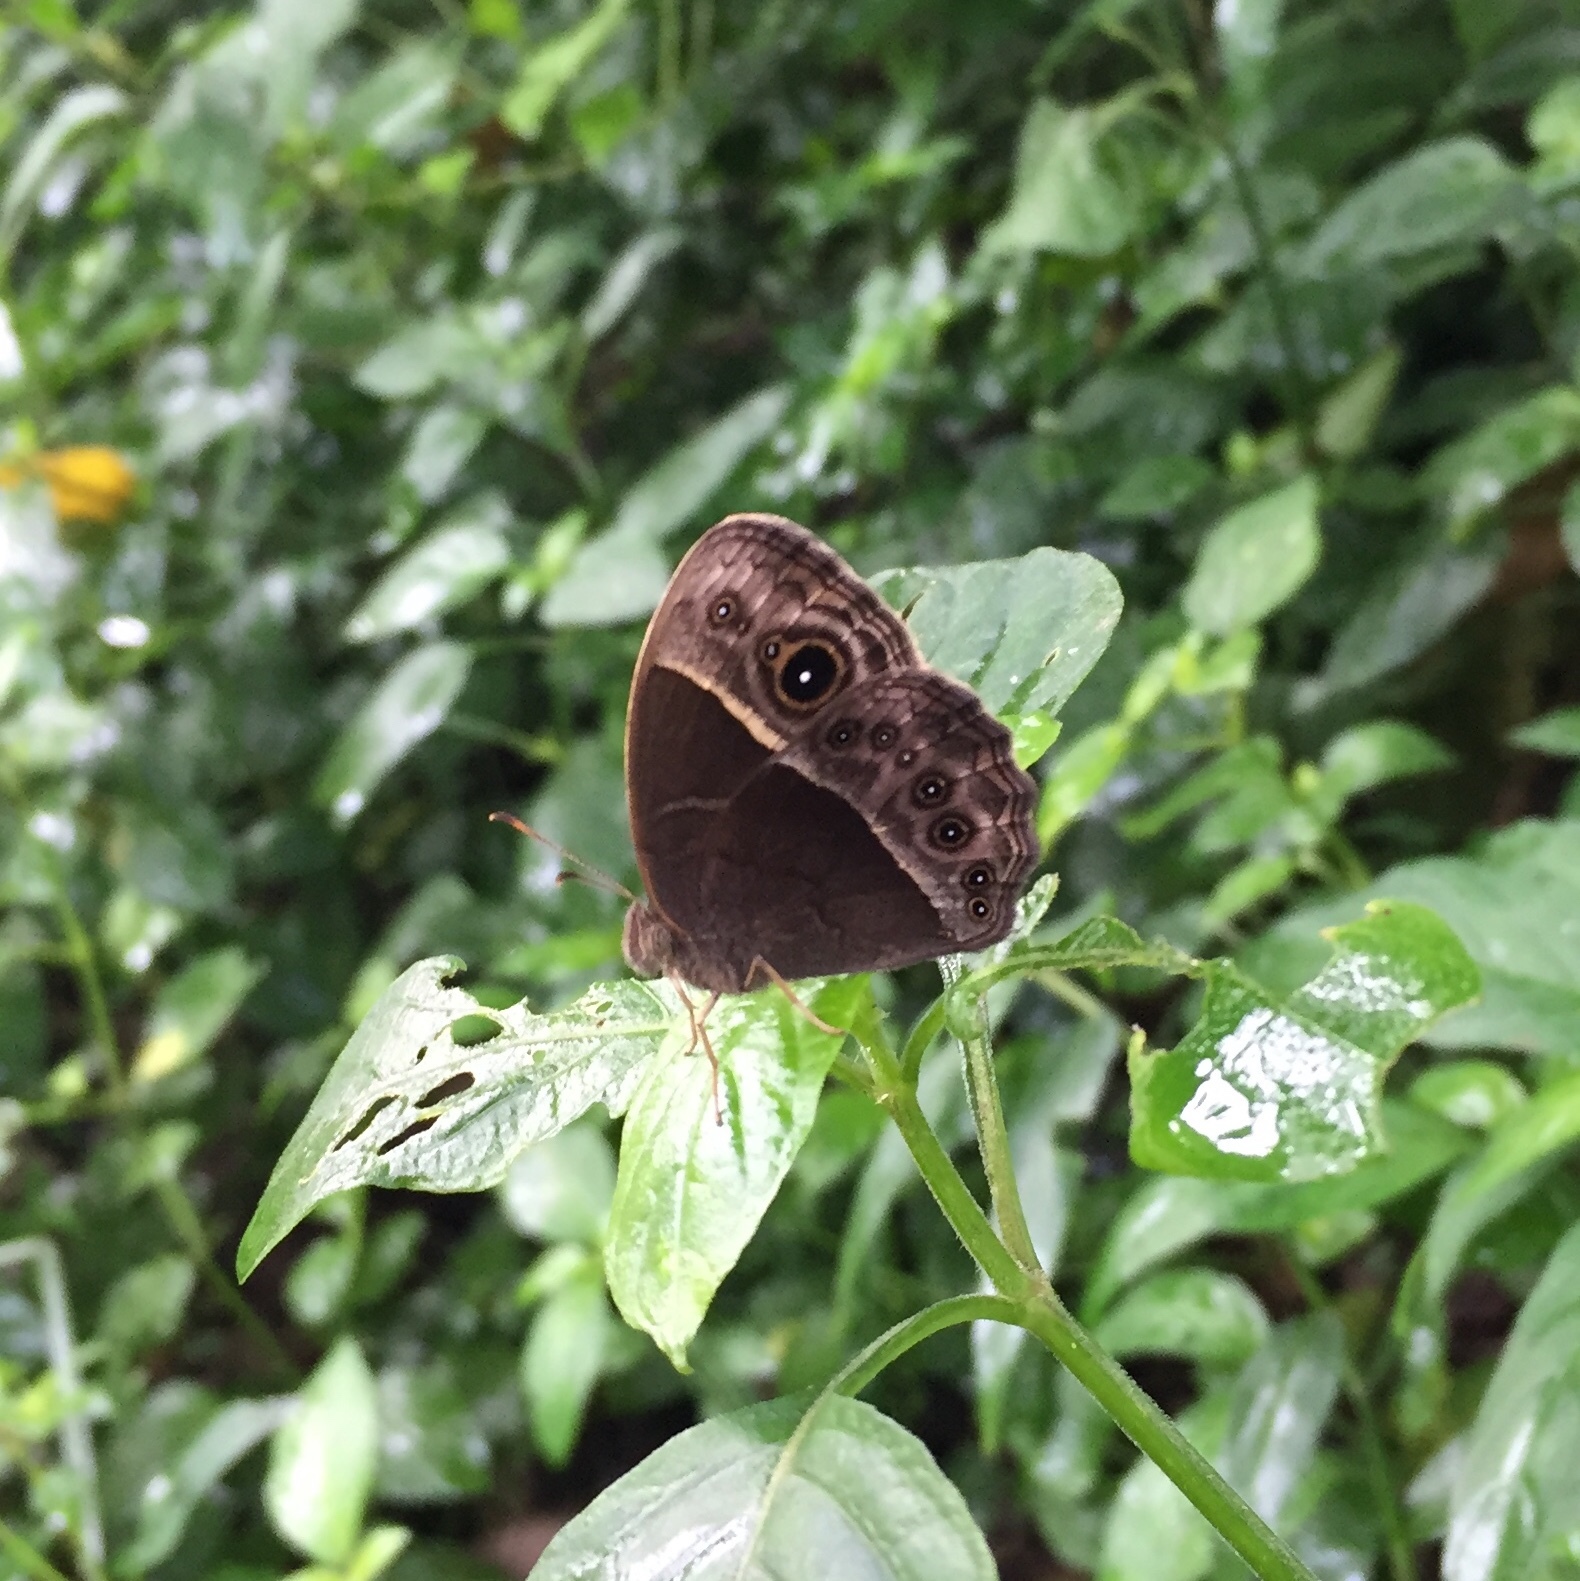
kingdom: Animalia
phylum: Arthropoda
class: Insecta
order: Lepidoptera
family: Nymphalidae
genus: Mycalesis
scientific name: Mycalesis rhacotis
